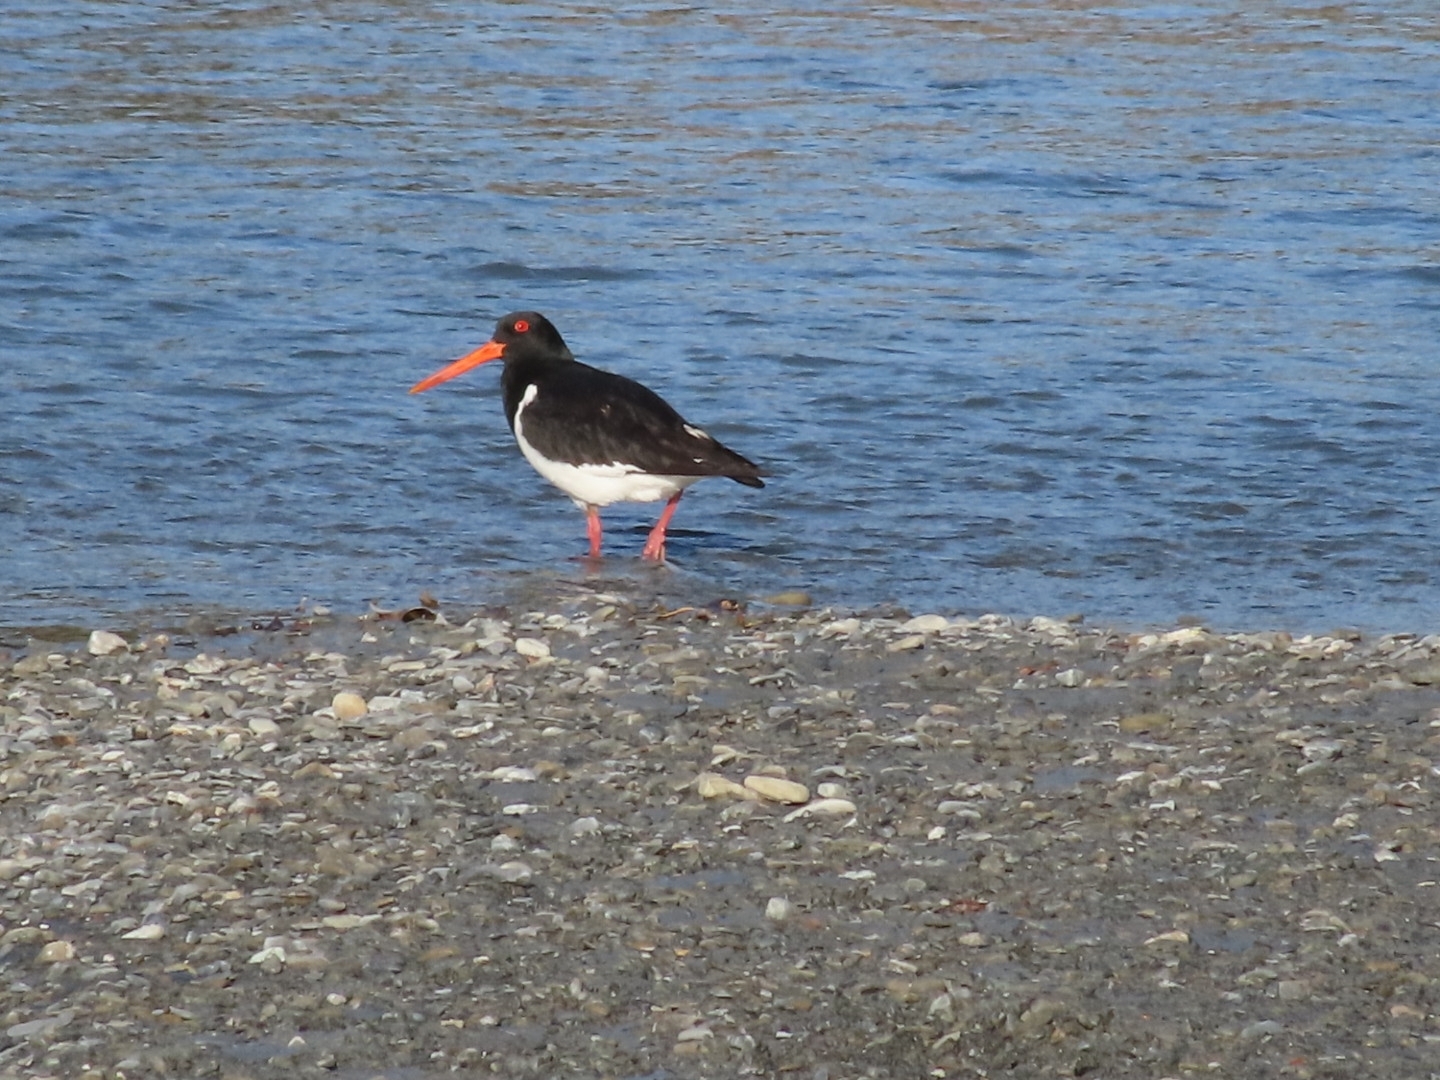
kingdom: Animalia
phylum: Chordata
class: Aves
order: Charadriiformes
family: Haematopodidae
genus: Haematopus
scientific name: Haematopus finschi
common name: South island oystercatcher
